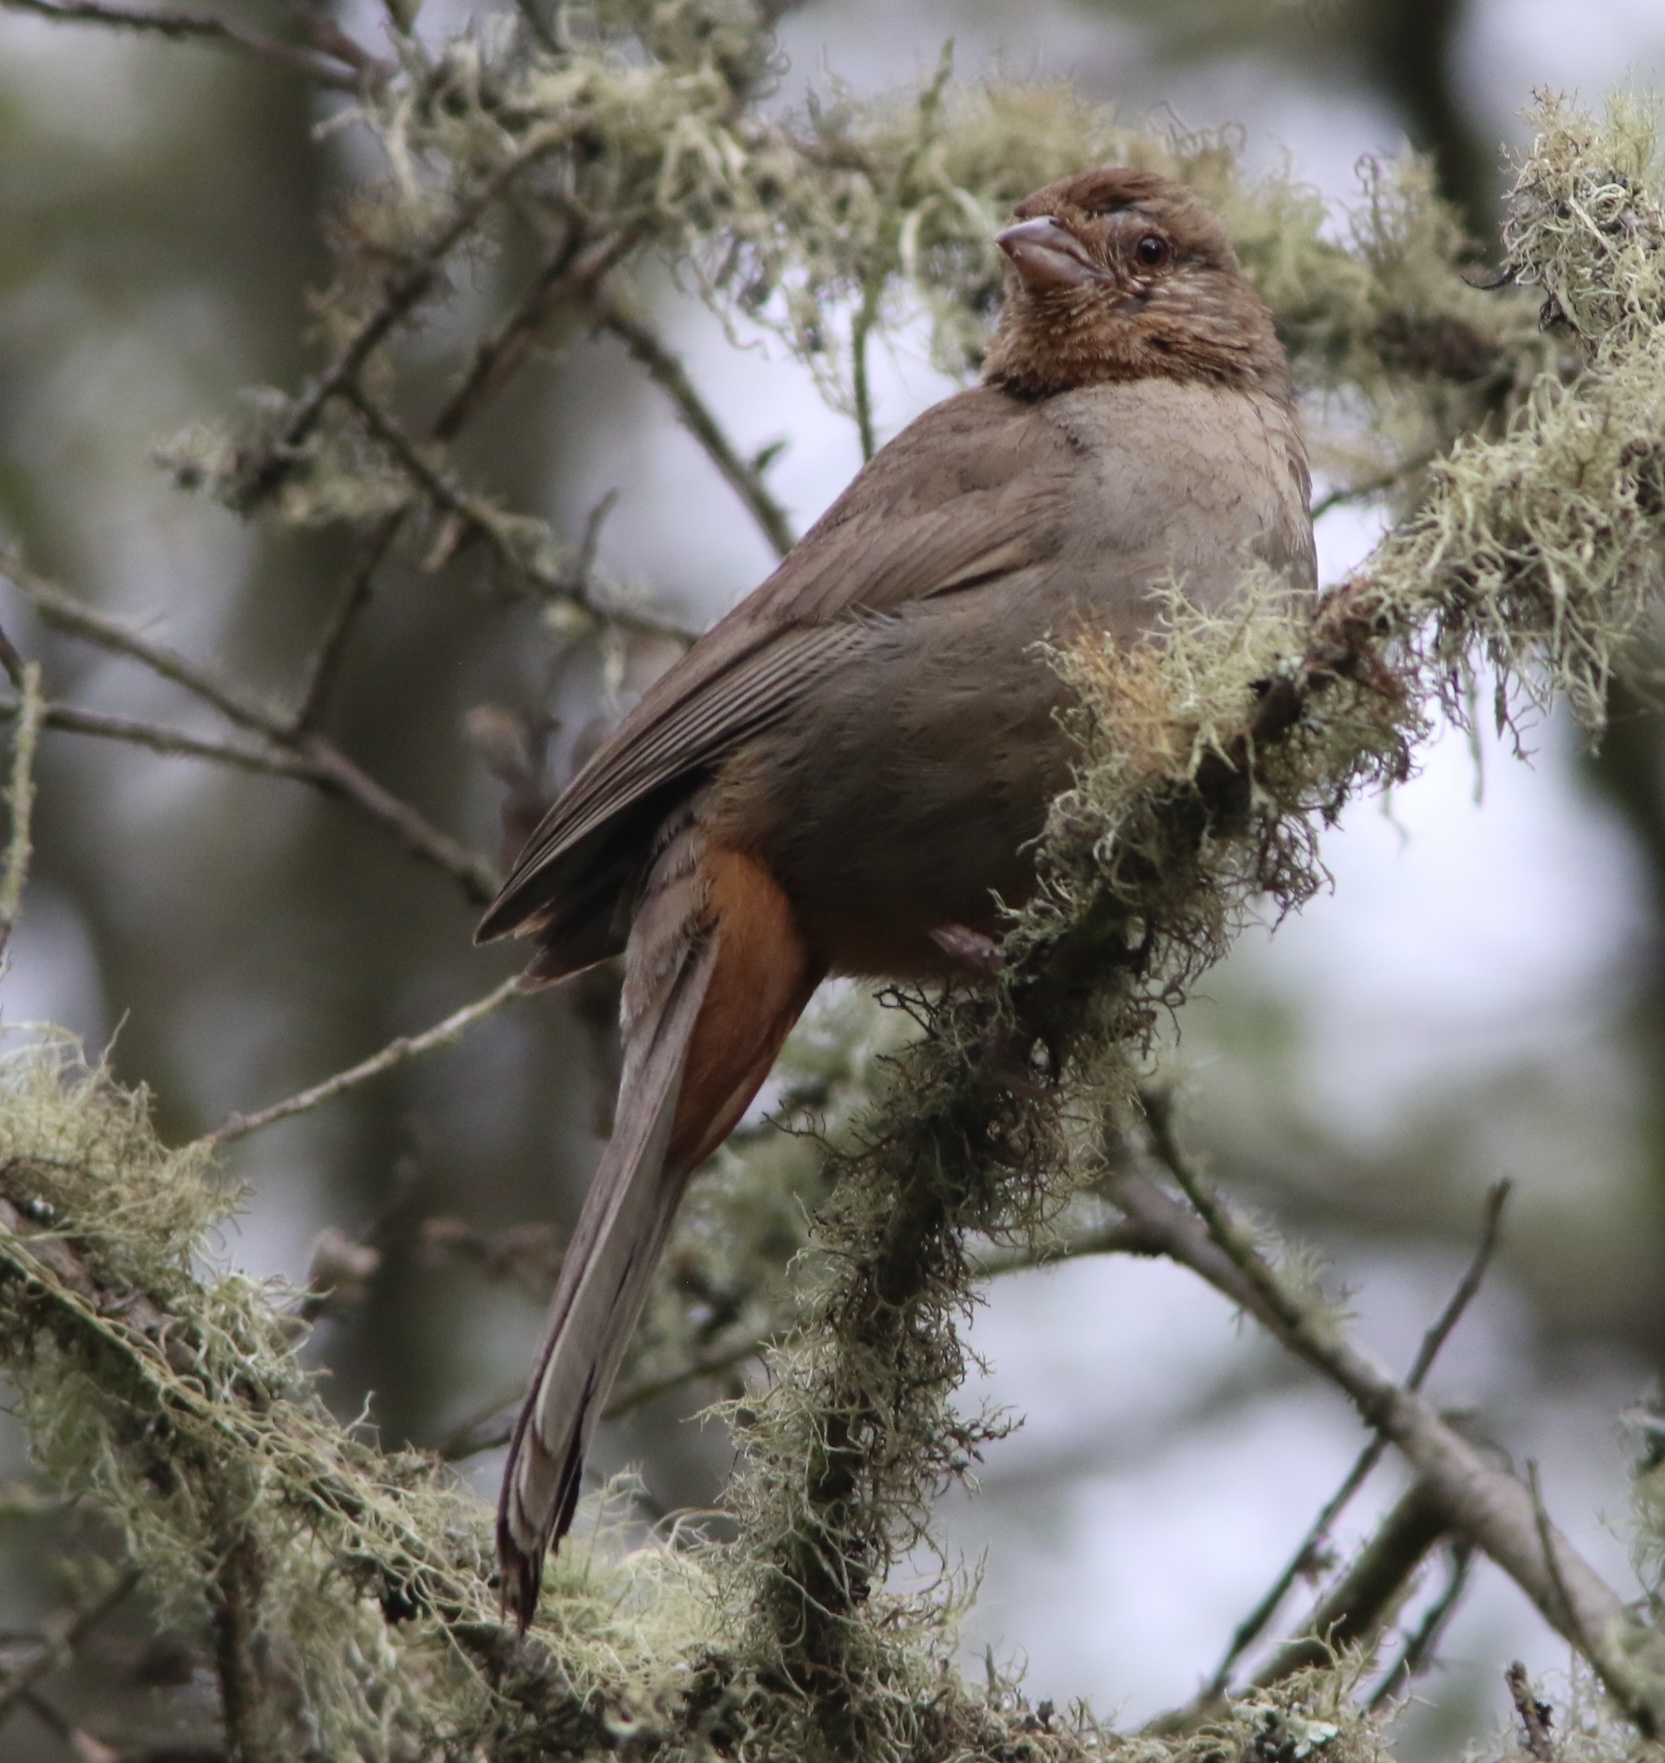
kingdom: Animalia
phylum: Chordata
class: Aves
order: Passeriformes
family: Passerellidae
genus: Melozone
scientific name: Melozone crissalis
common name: California towhee
